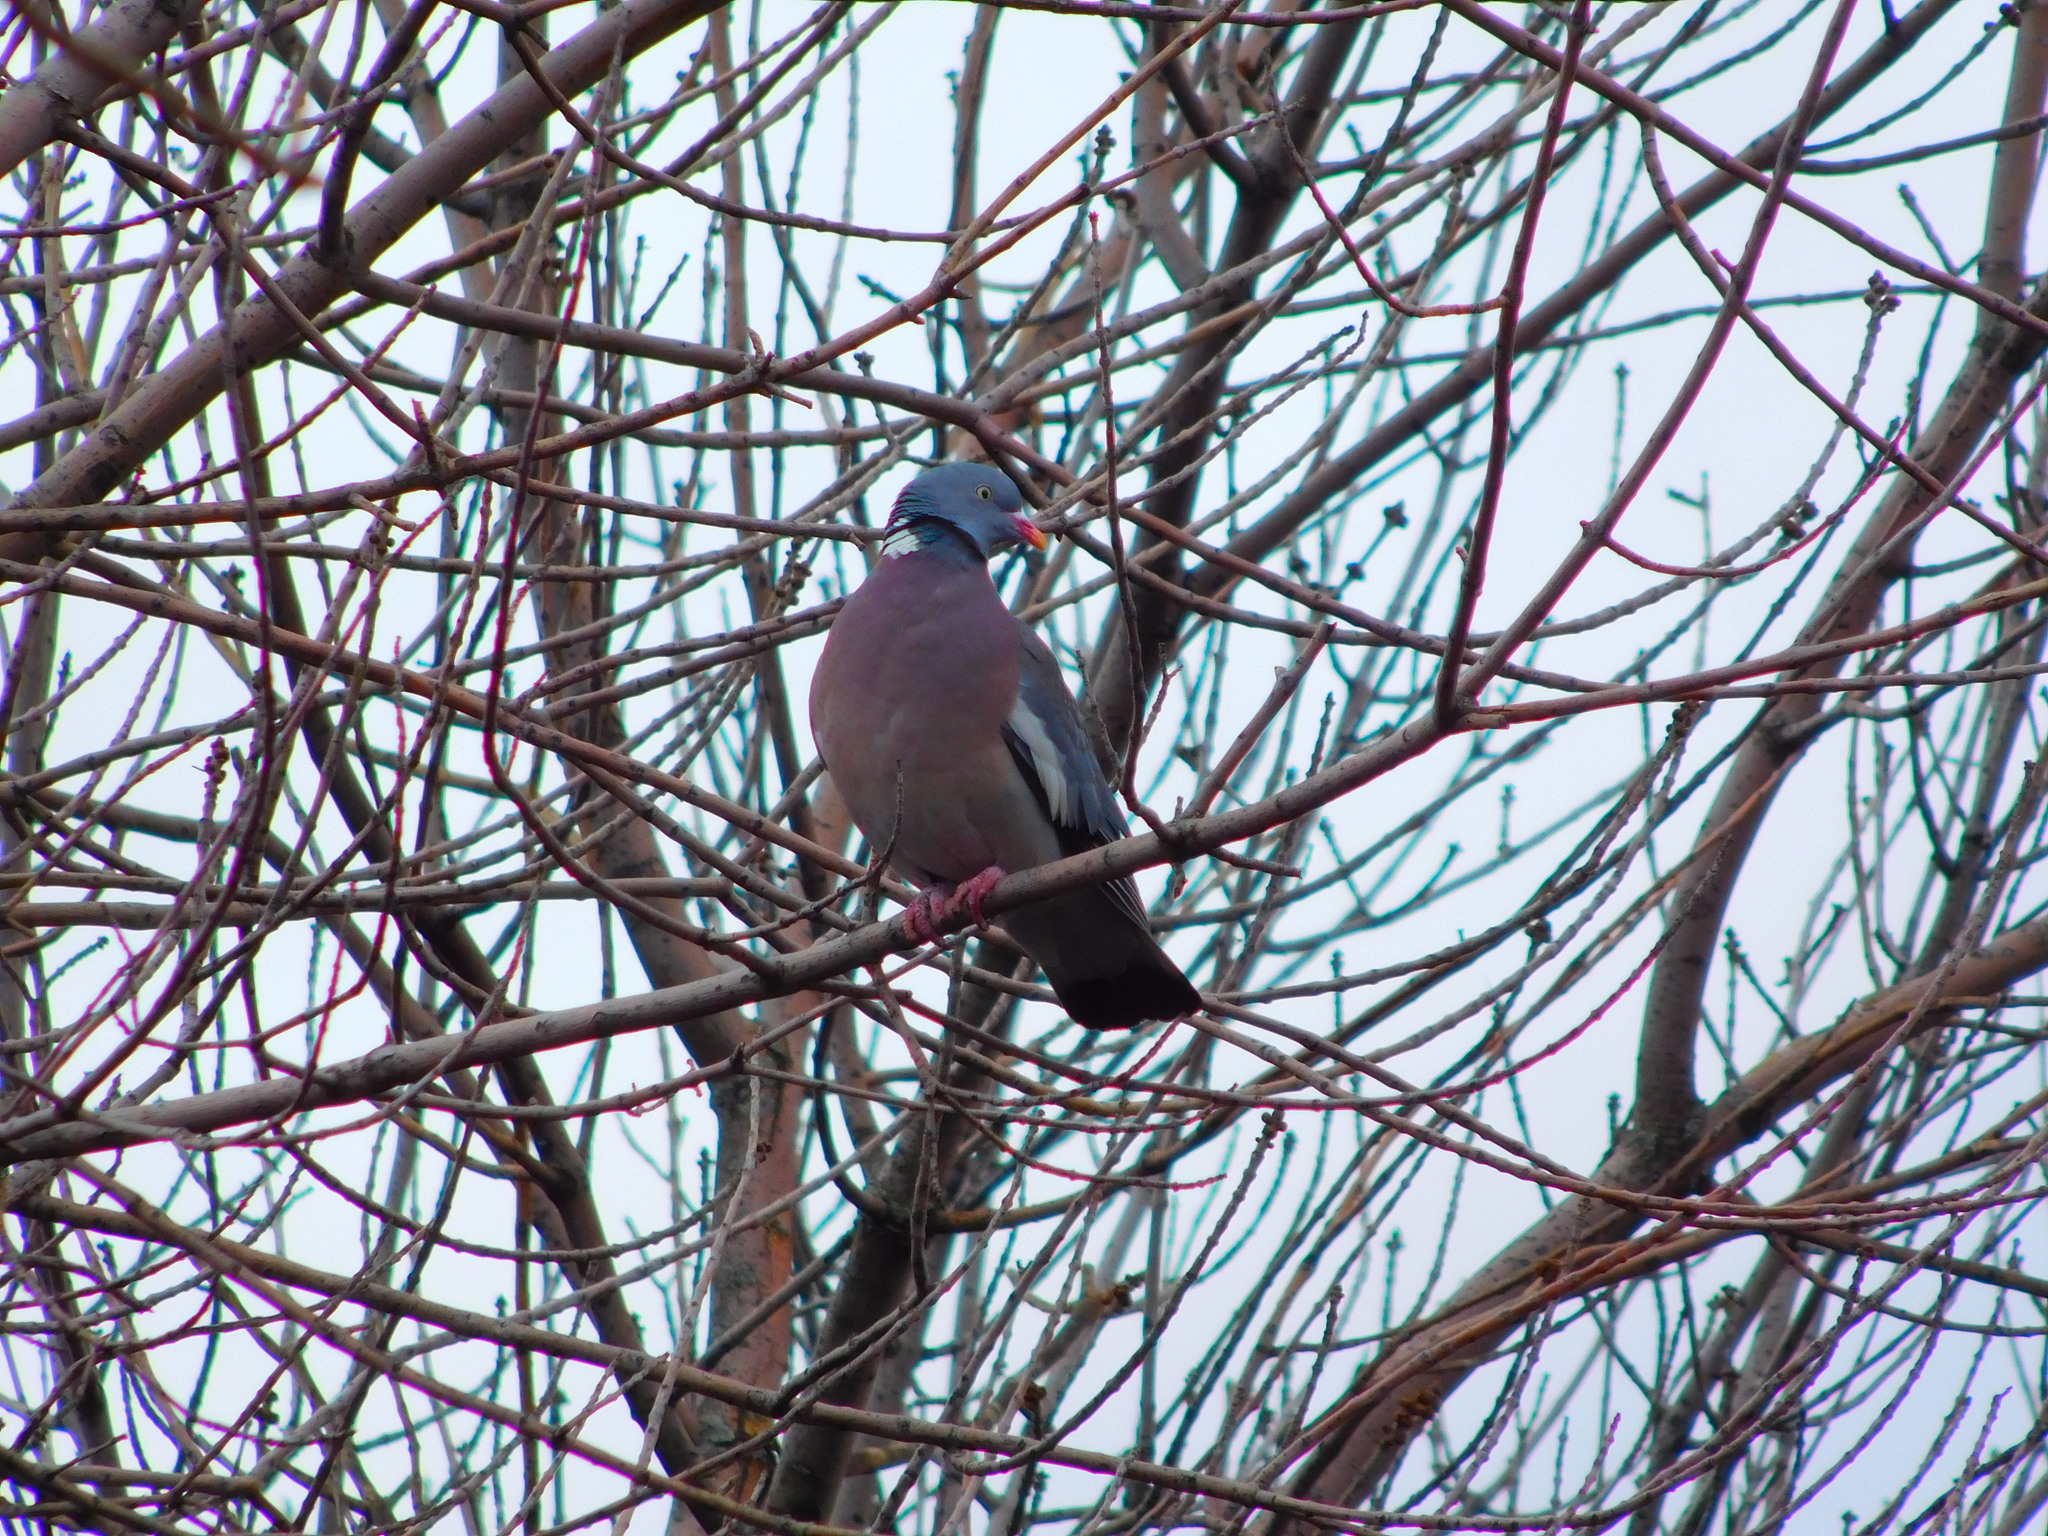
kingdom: Animalia
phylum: Chordata
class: Aves
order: Columbiformes
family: Columbidae
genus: Columba
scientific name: Columba palumbus
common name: Common wood pigeon
